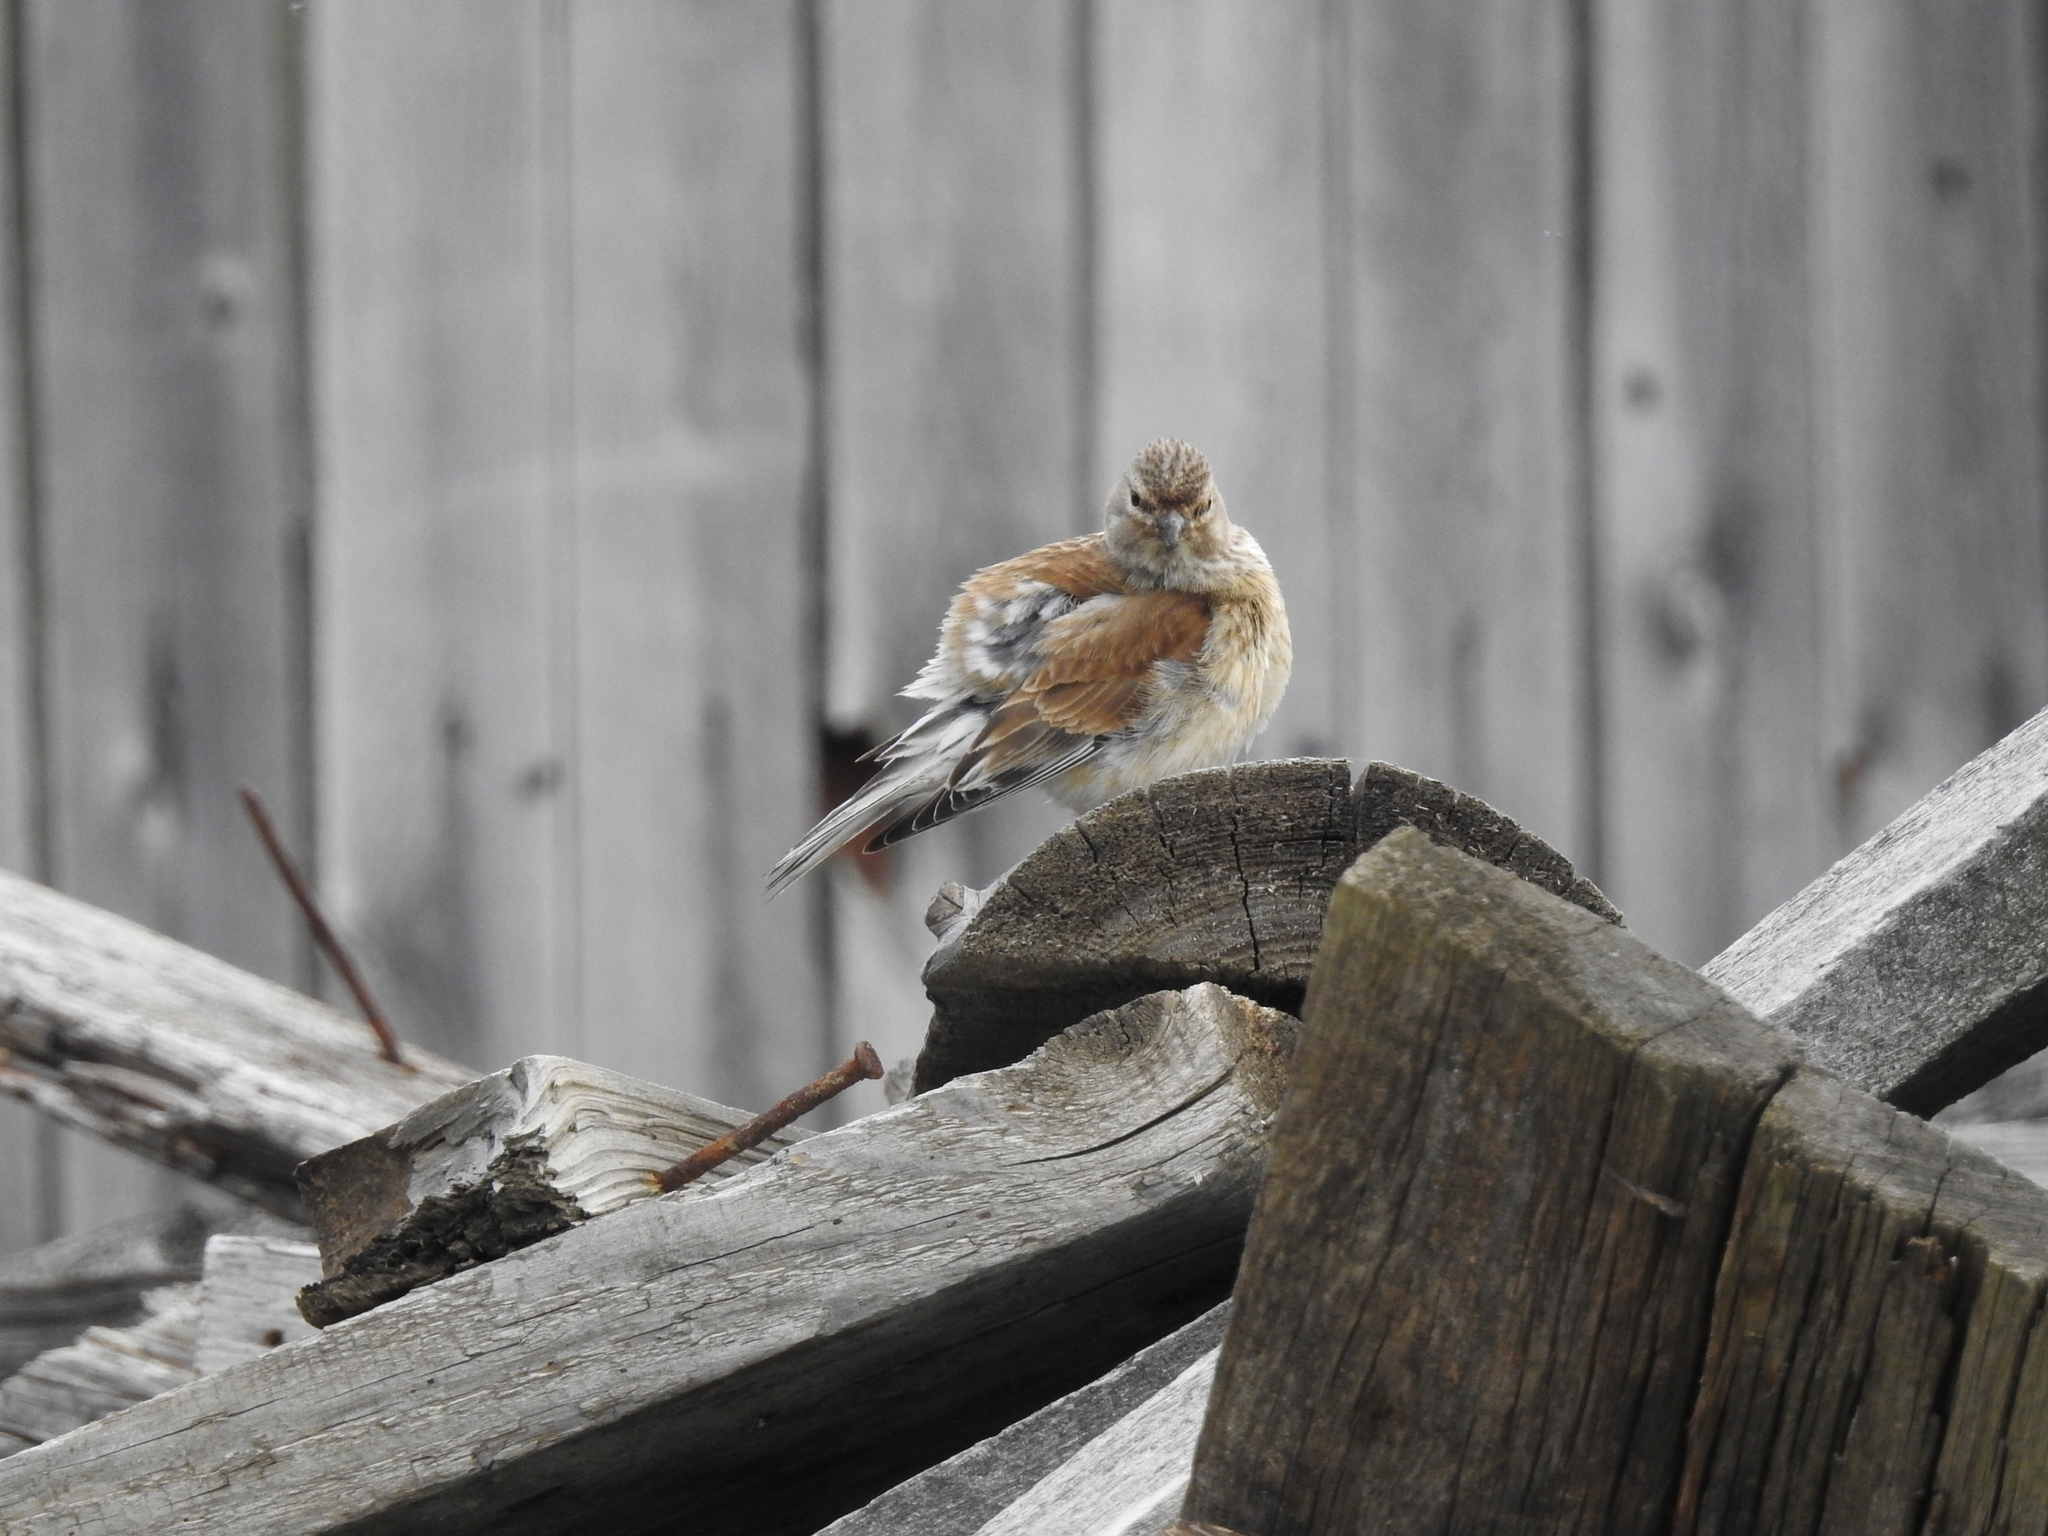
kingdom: Animalia
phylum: Chordata
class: Aves
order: Passeriformes
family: Fringillidae
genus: Linaria
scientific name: Linaria cannabina
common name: Common linnet
